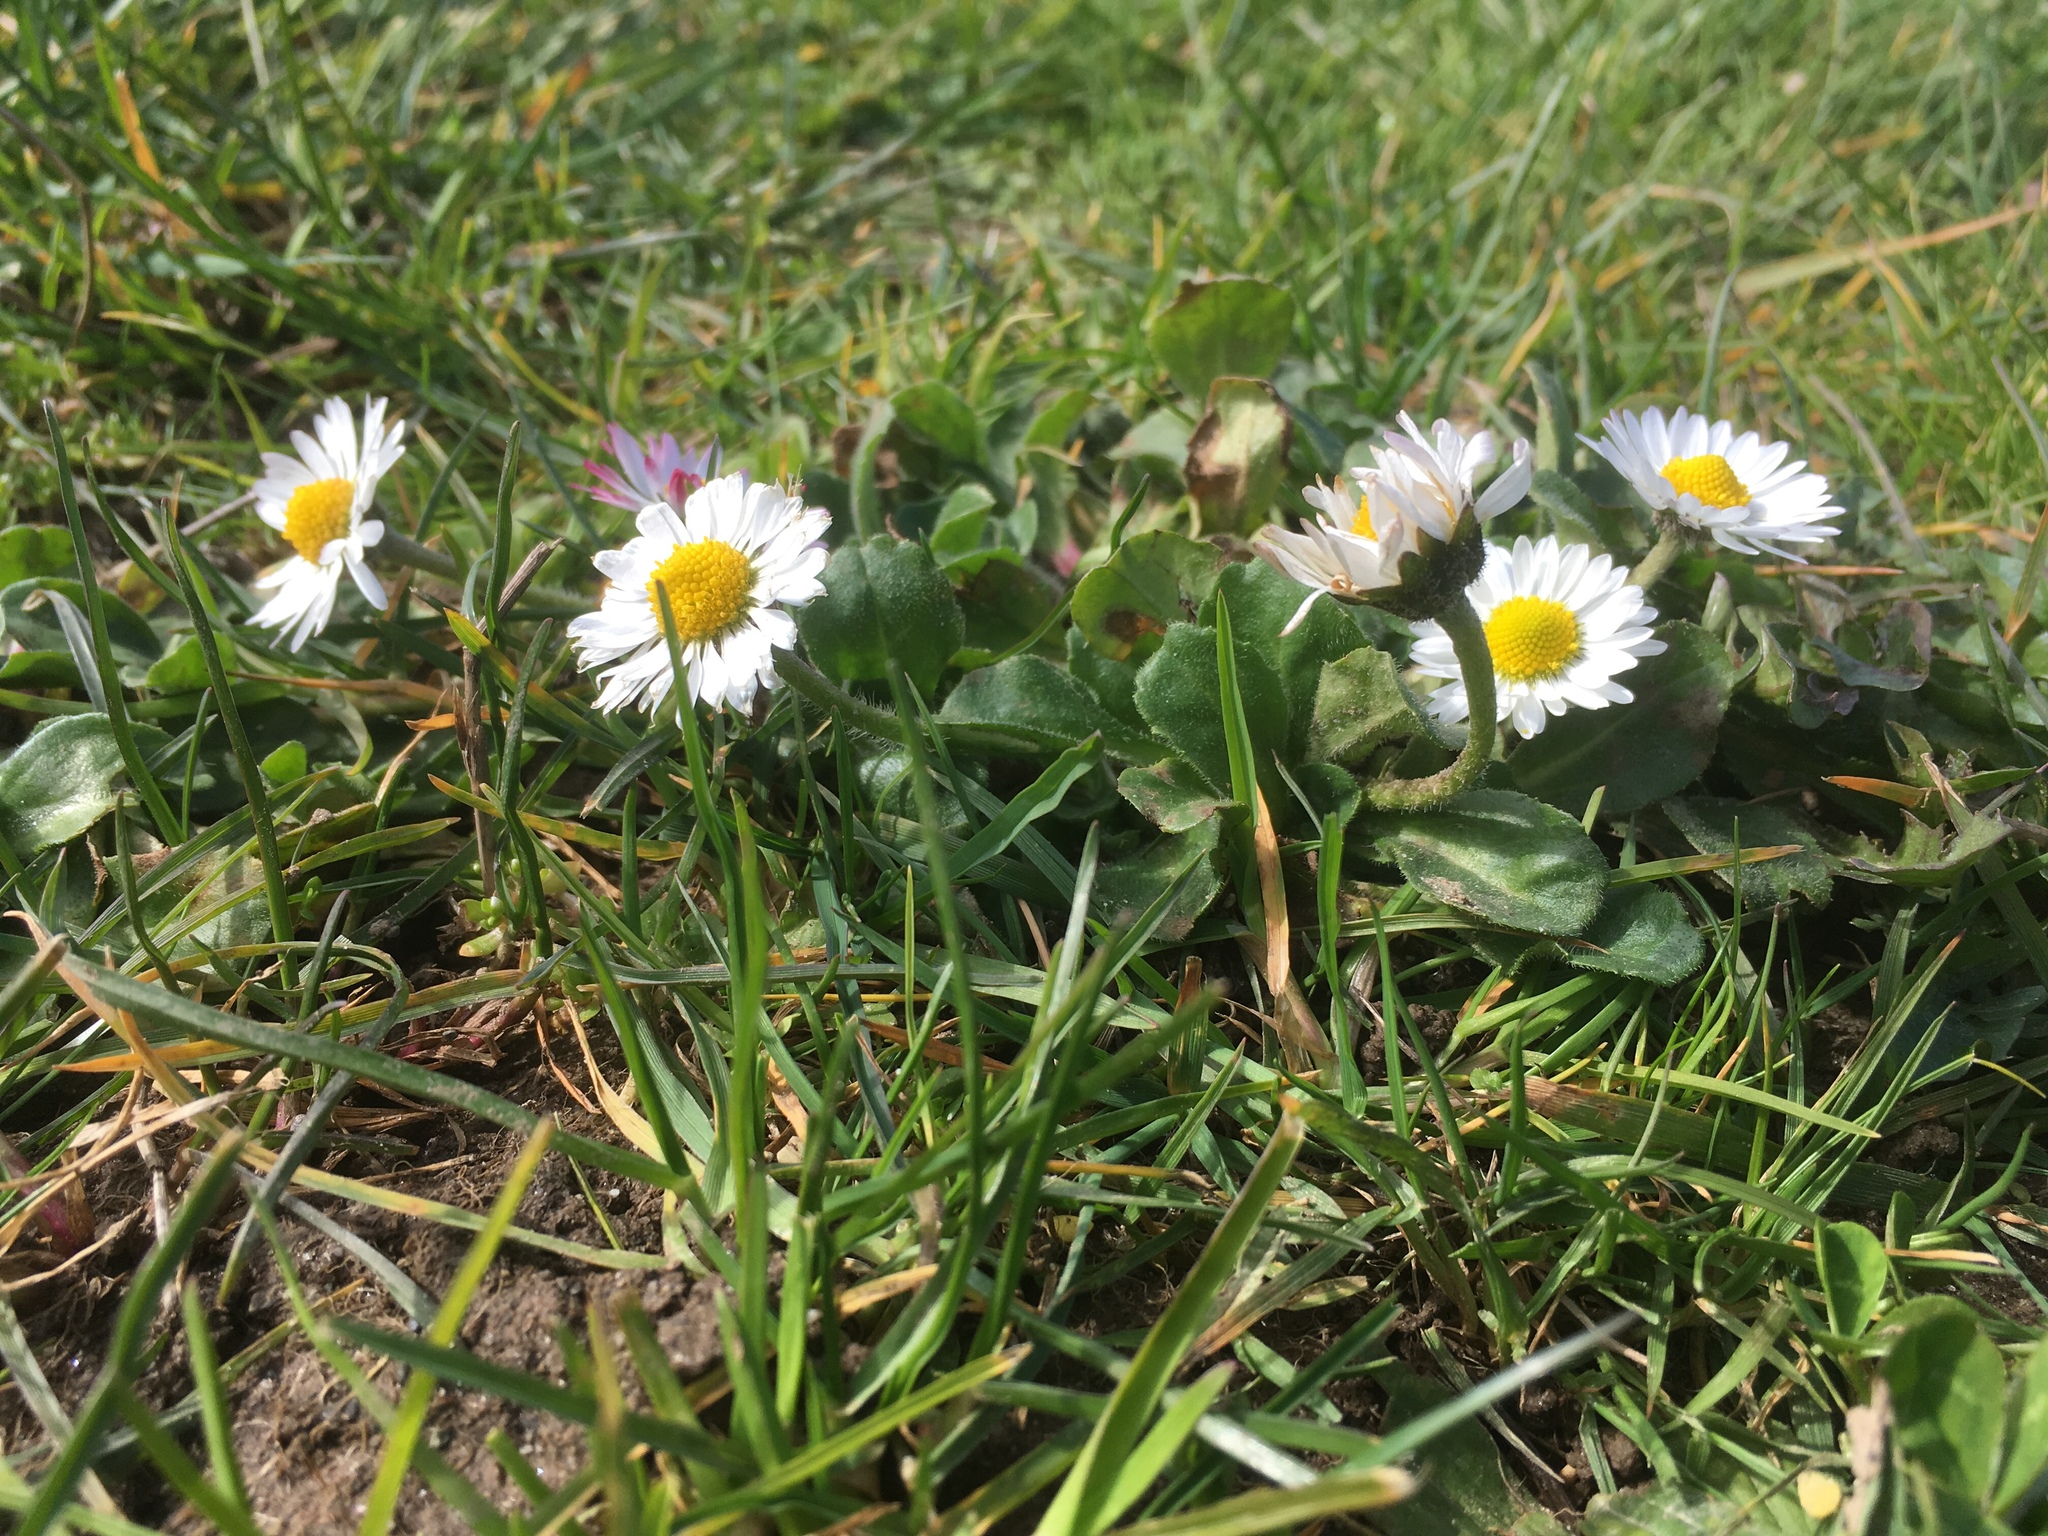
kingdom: Plantae
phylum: Tracheophyta
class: Magnoliopsida
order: Asterales
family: Asteraceae
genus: Bellis
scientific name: Bellis perennis
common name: Lawndaisy
